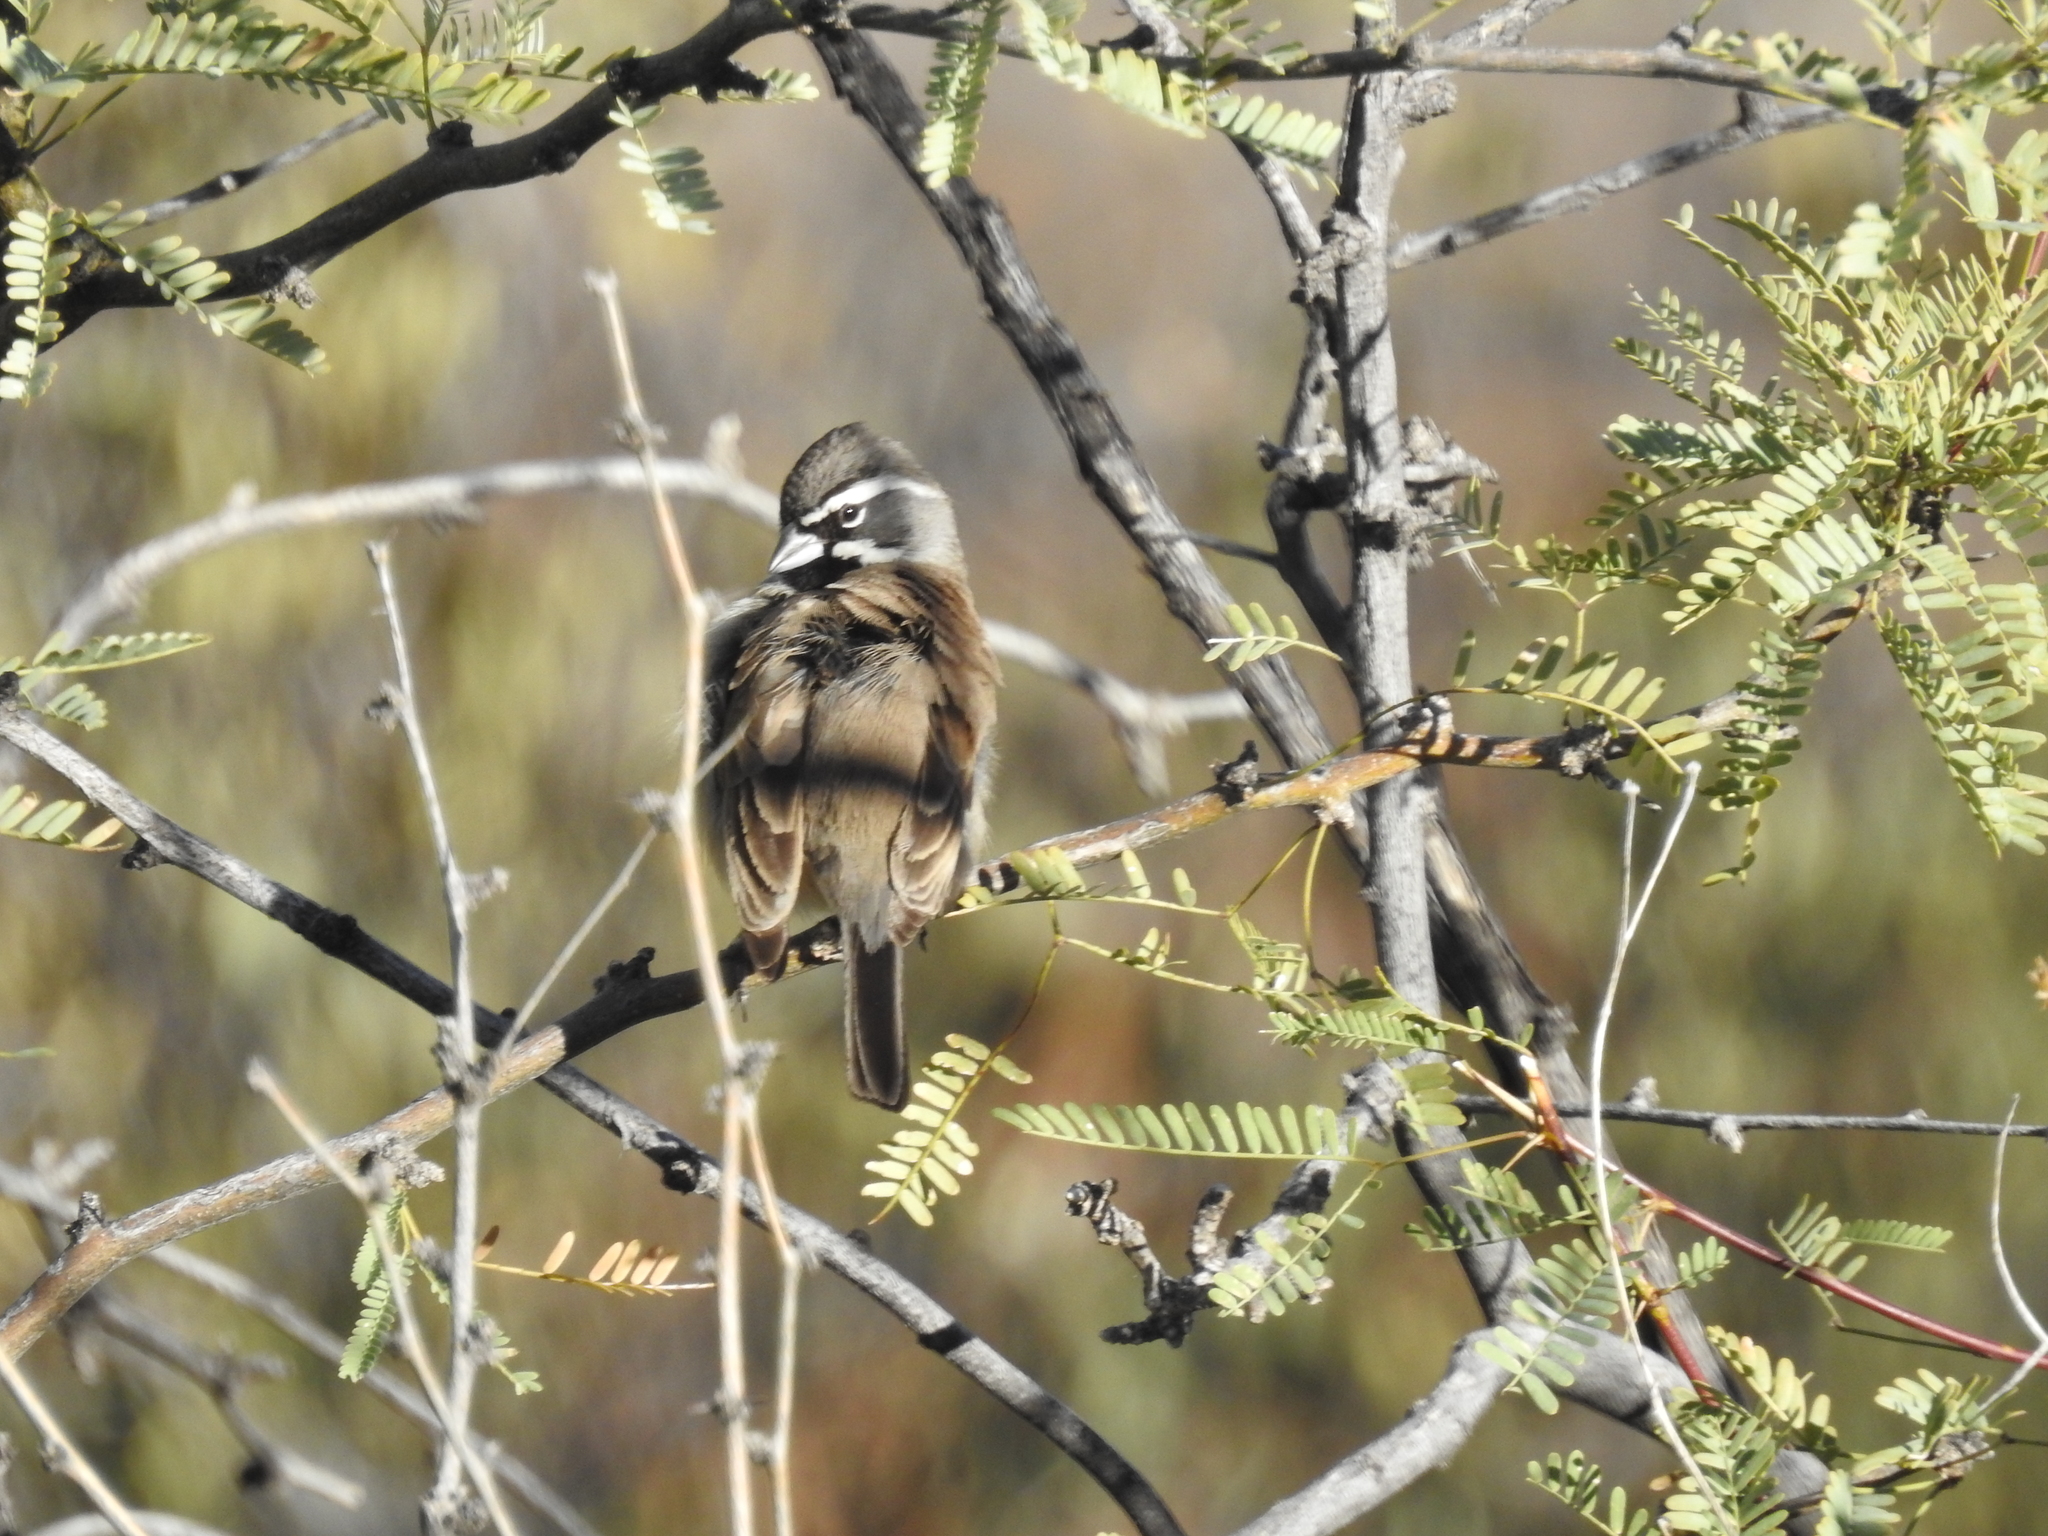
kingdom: Animalia
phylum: Chordata
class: Aves
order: Passeriformes
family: Passerellidae
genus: Amphispiza
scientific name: Amphispiza bilineata
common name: Black-throated sparrow
